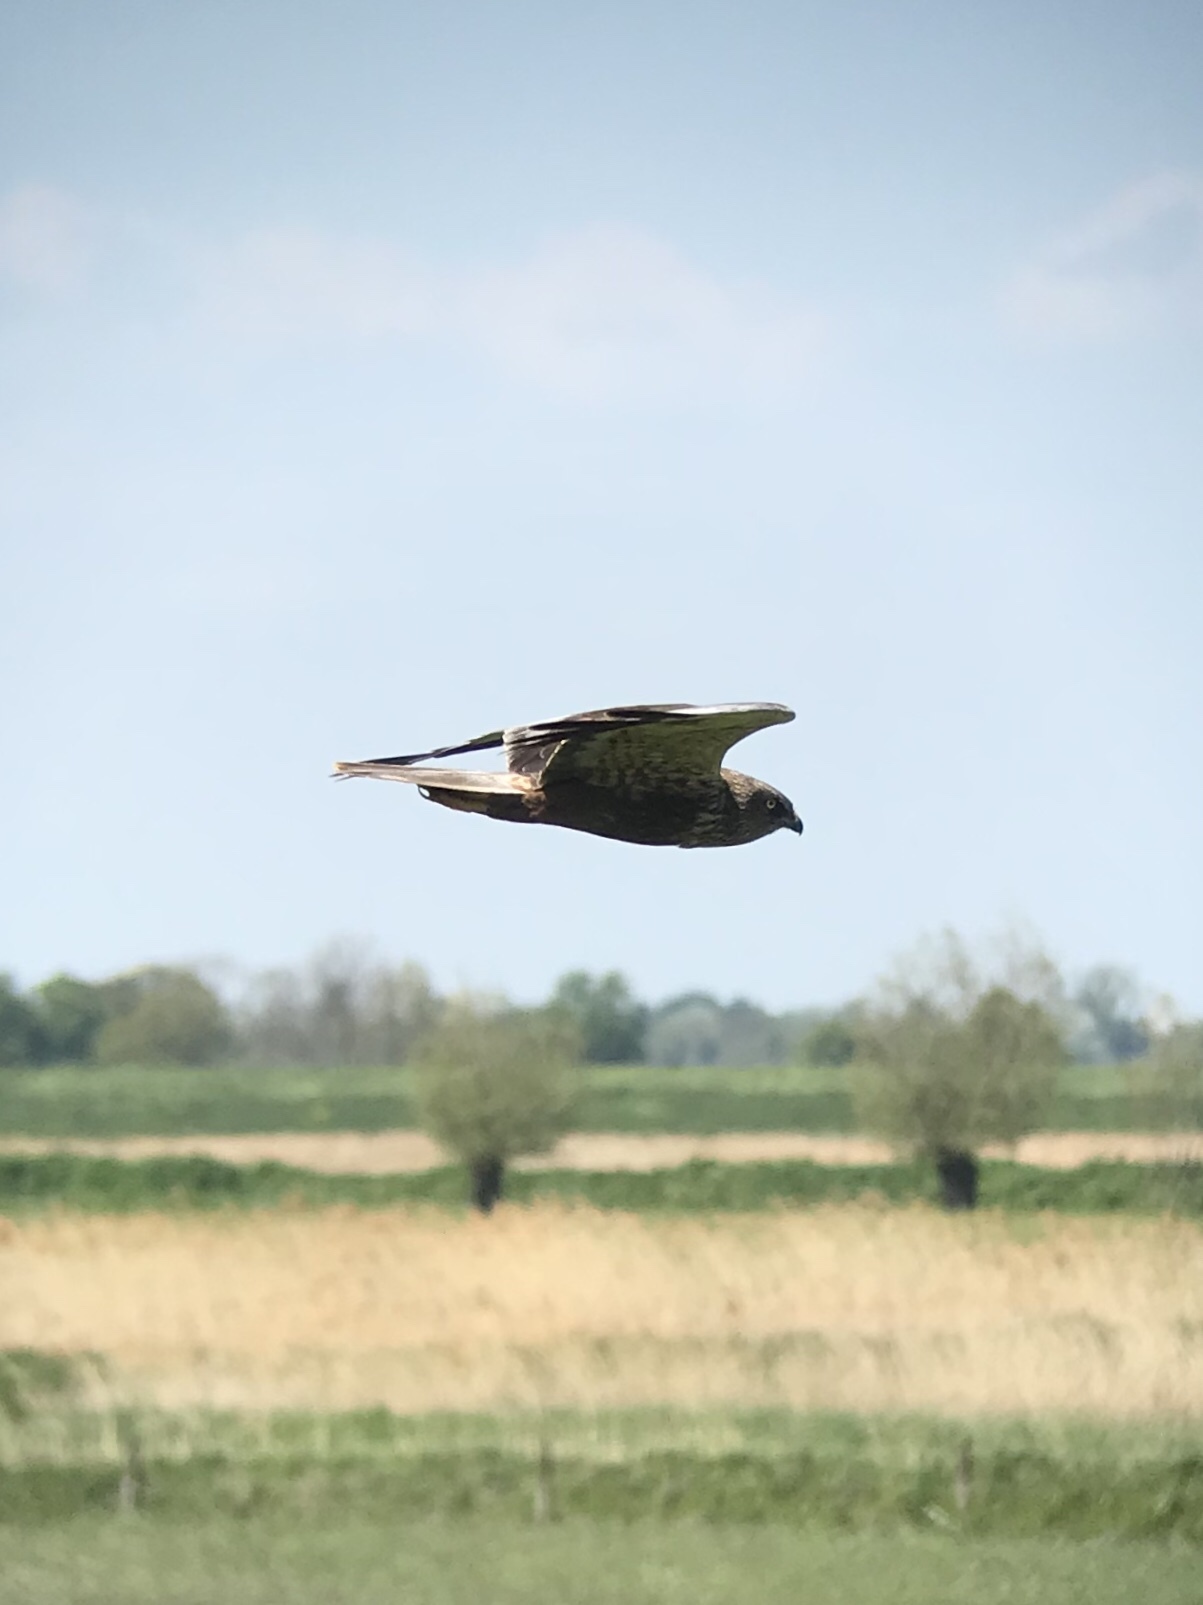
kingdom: Animalia
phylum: Chordata
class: Aves
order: Accipitriformes
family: Accipitridae
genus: Circus
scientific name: Circus aeruginosus
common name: Western marsh harrier
